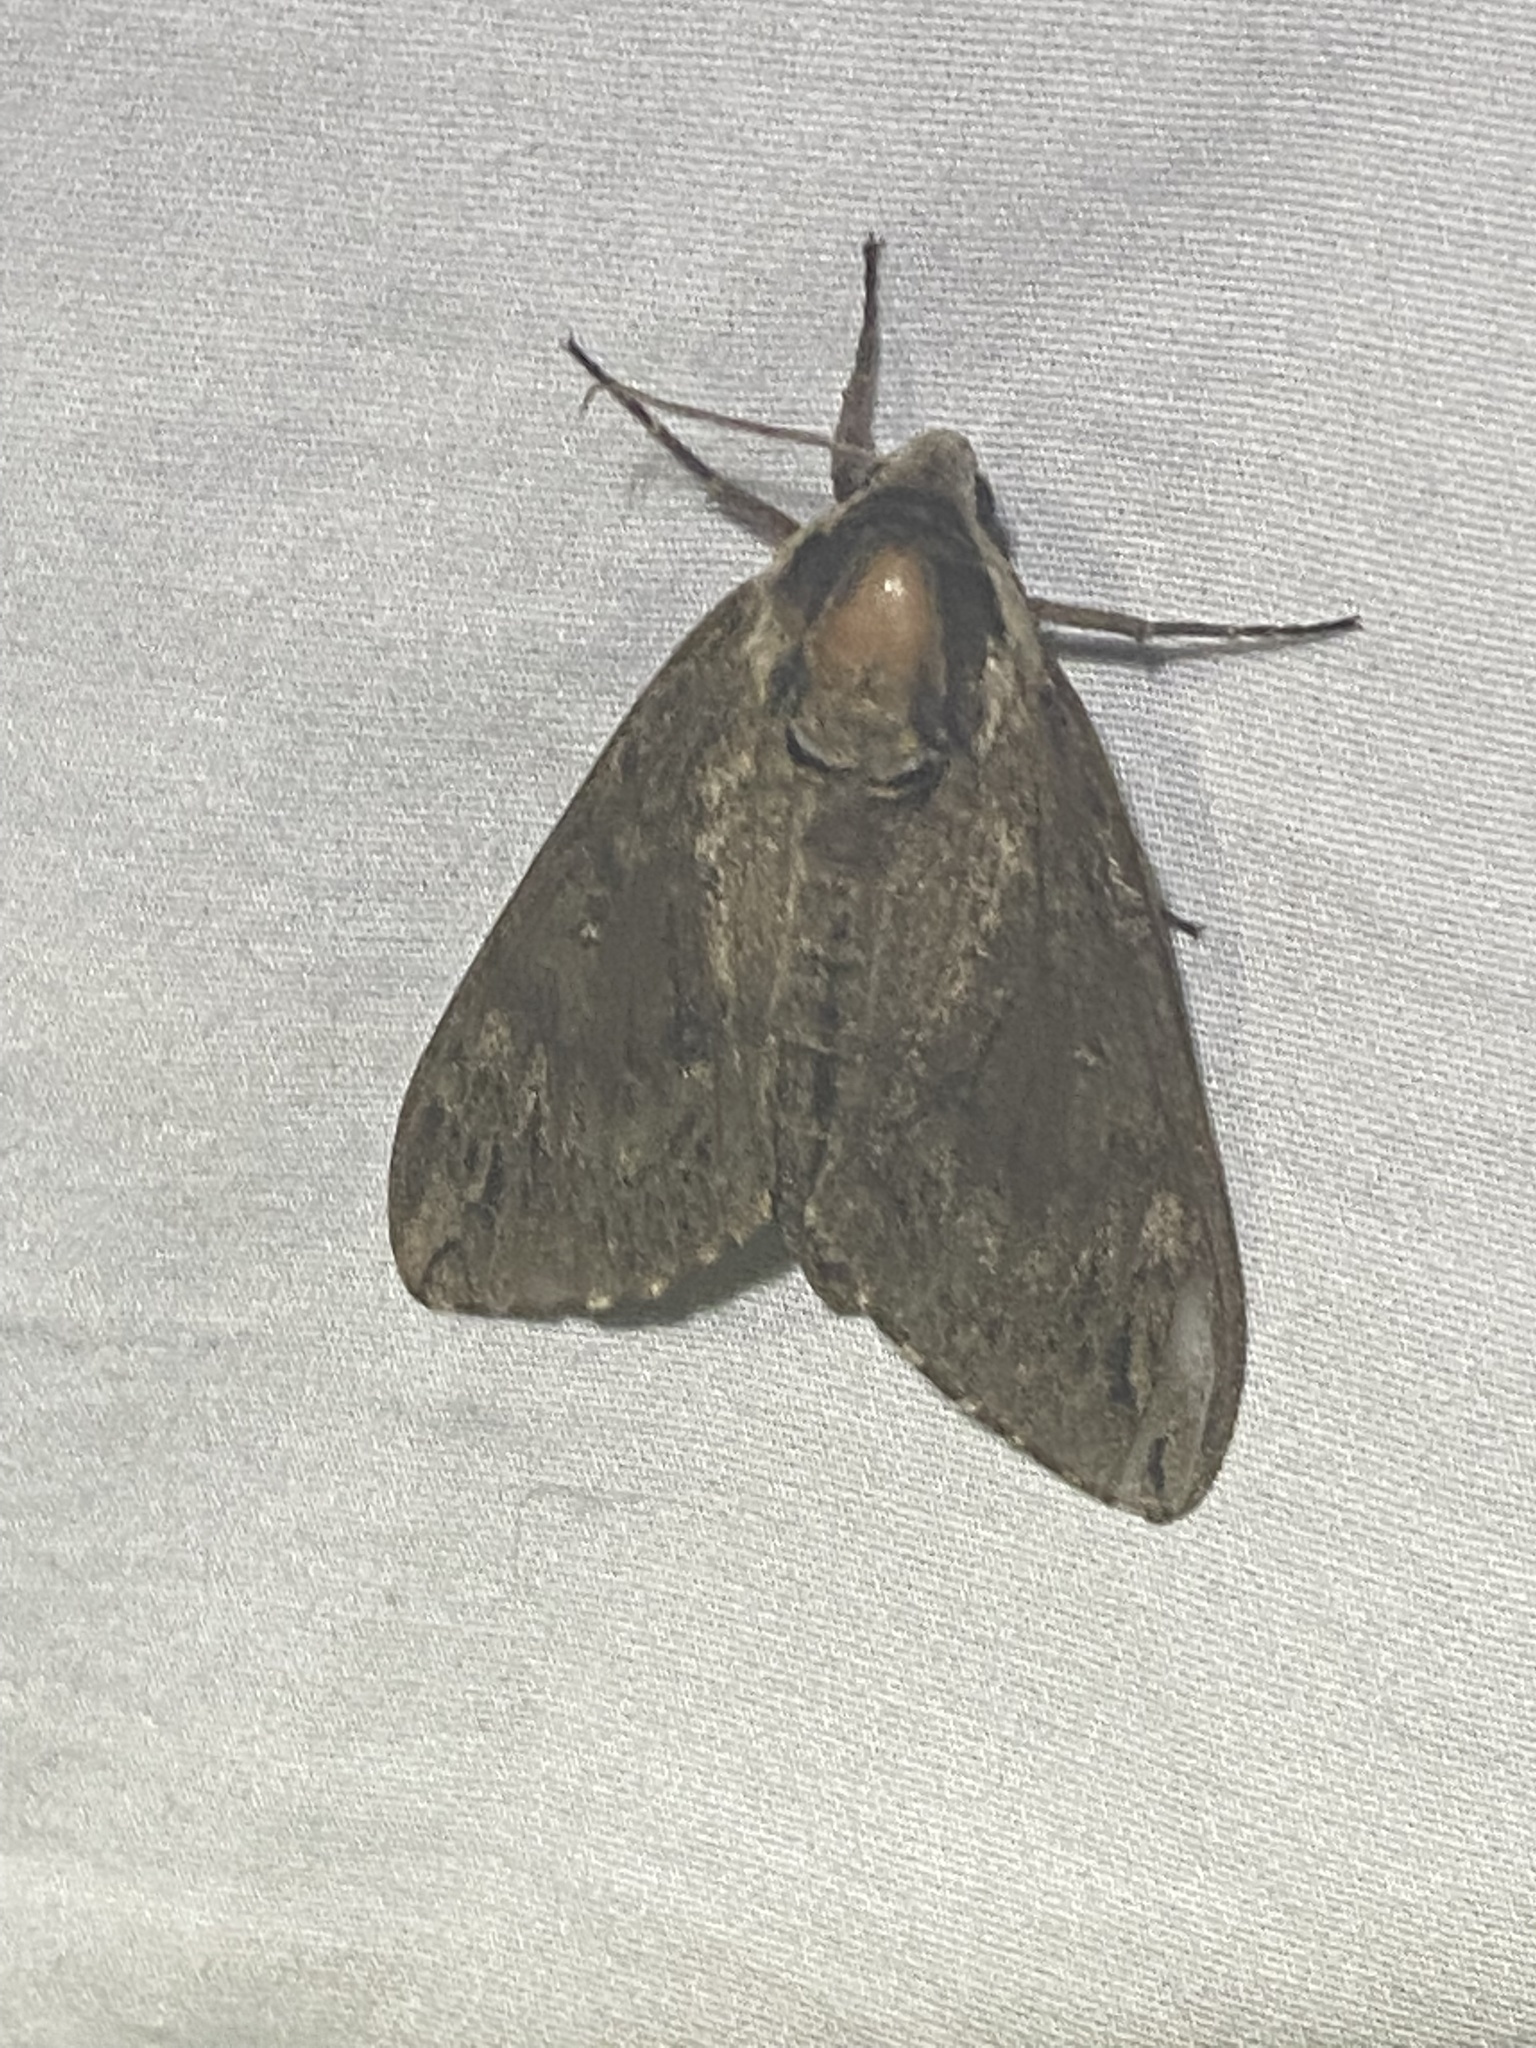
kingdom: Animalia
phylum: Arthropoda
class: Insecta
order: Lepidoptera
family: Sphingidae
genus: Ceratomia
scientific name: Ceratomia catalpae
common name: Catalpa hornworm
